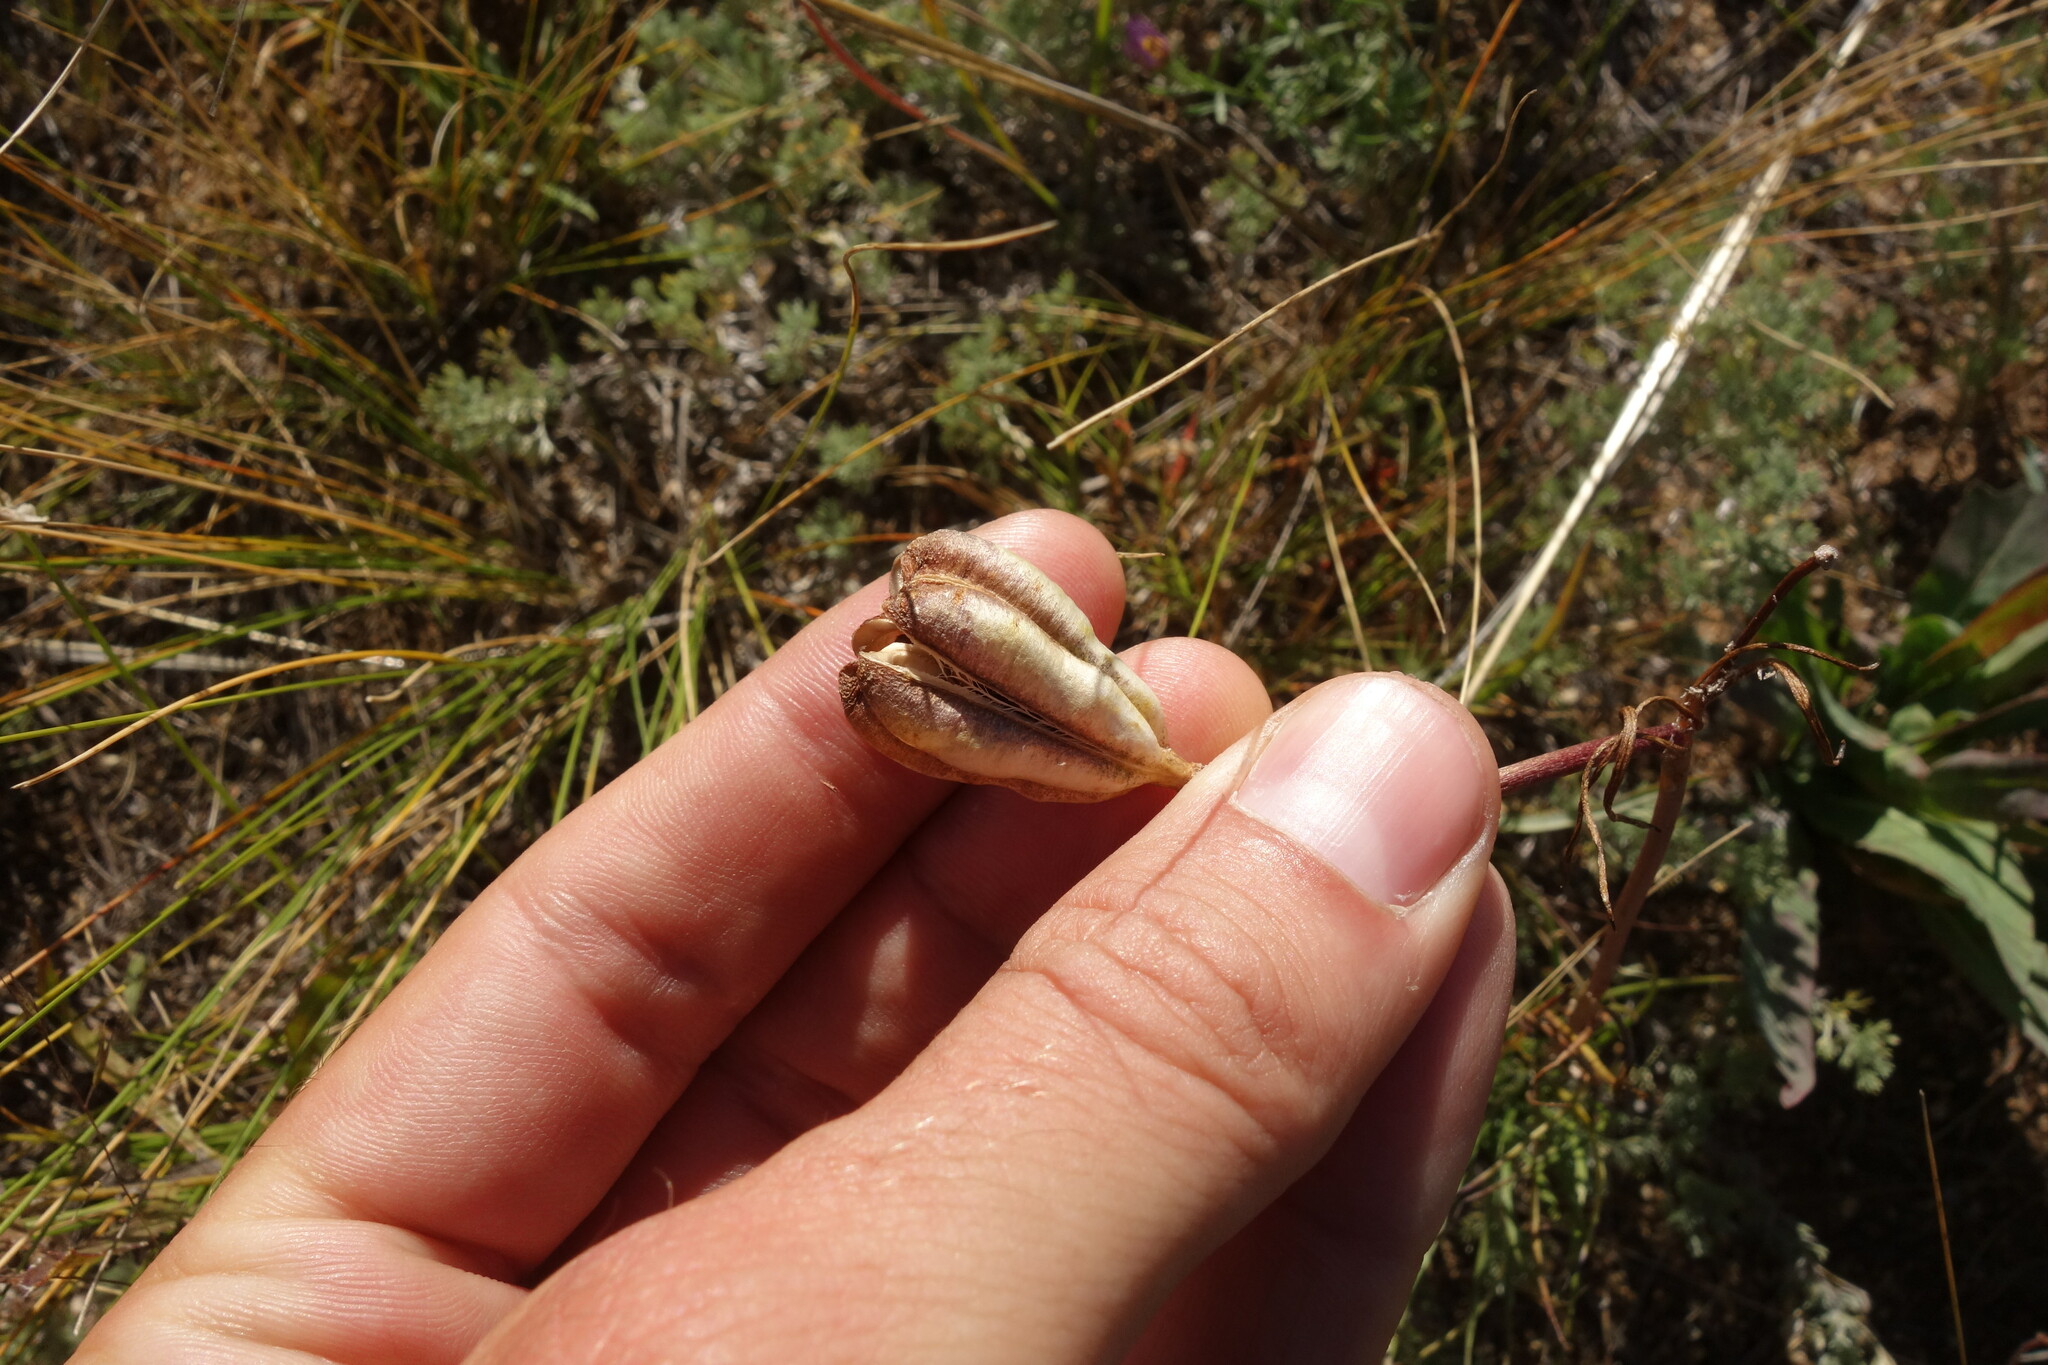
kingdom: Plantae
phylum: Tracheophyta
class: Liliopsida
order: Liliales
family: Liliaceae
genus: Lilium
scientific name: Lilium pumilum
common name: Coral lily
